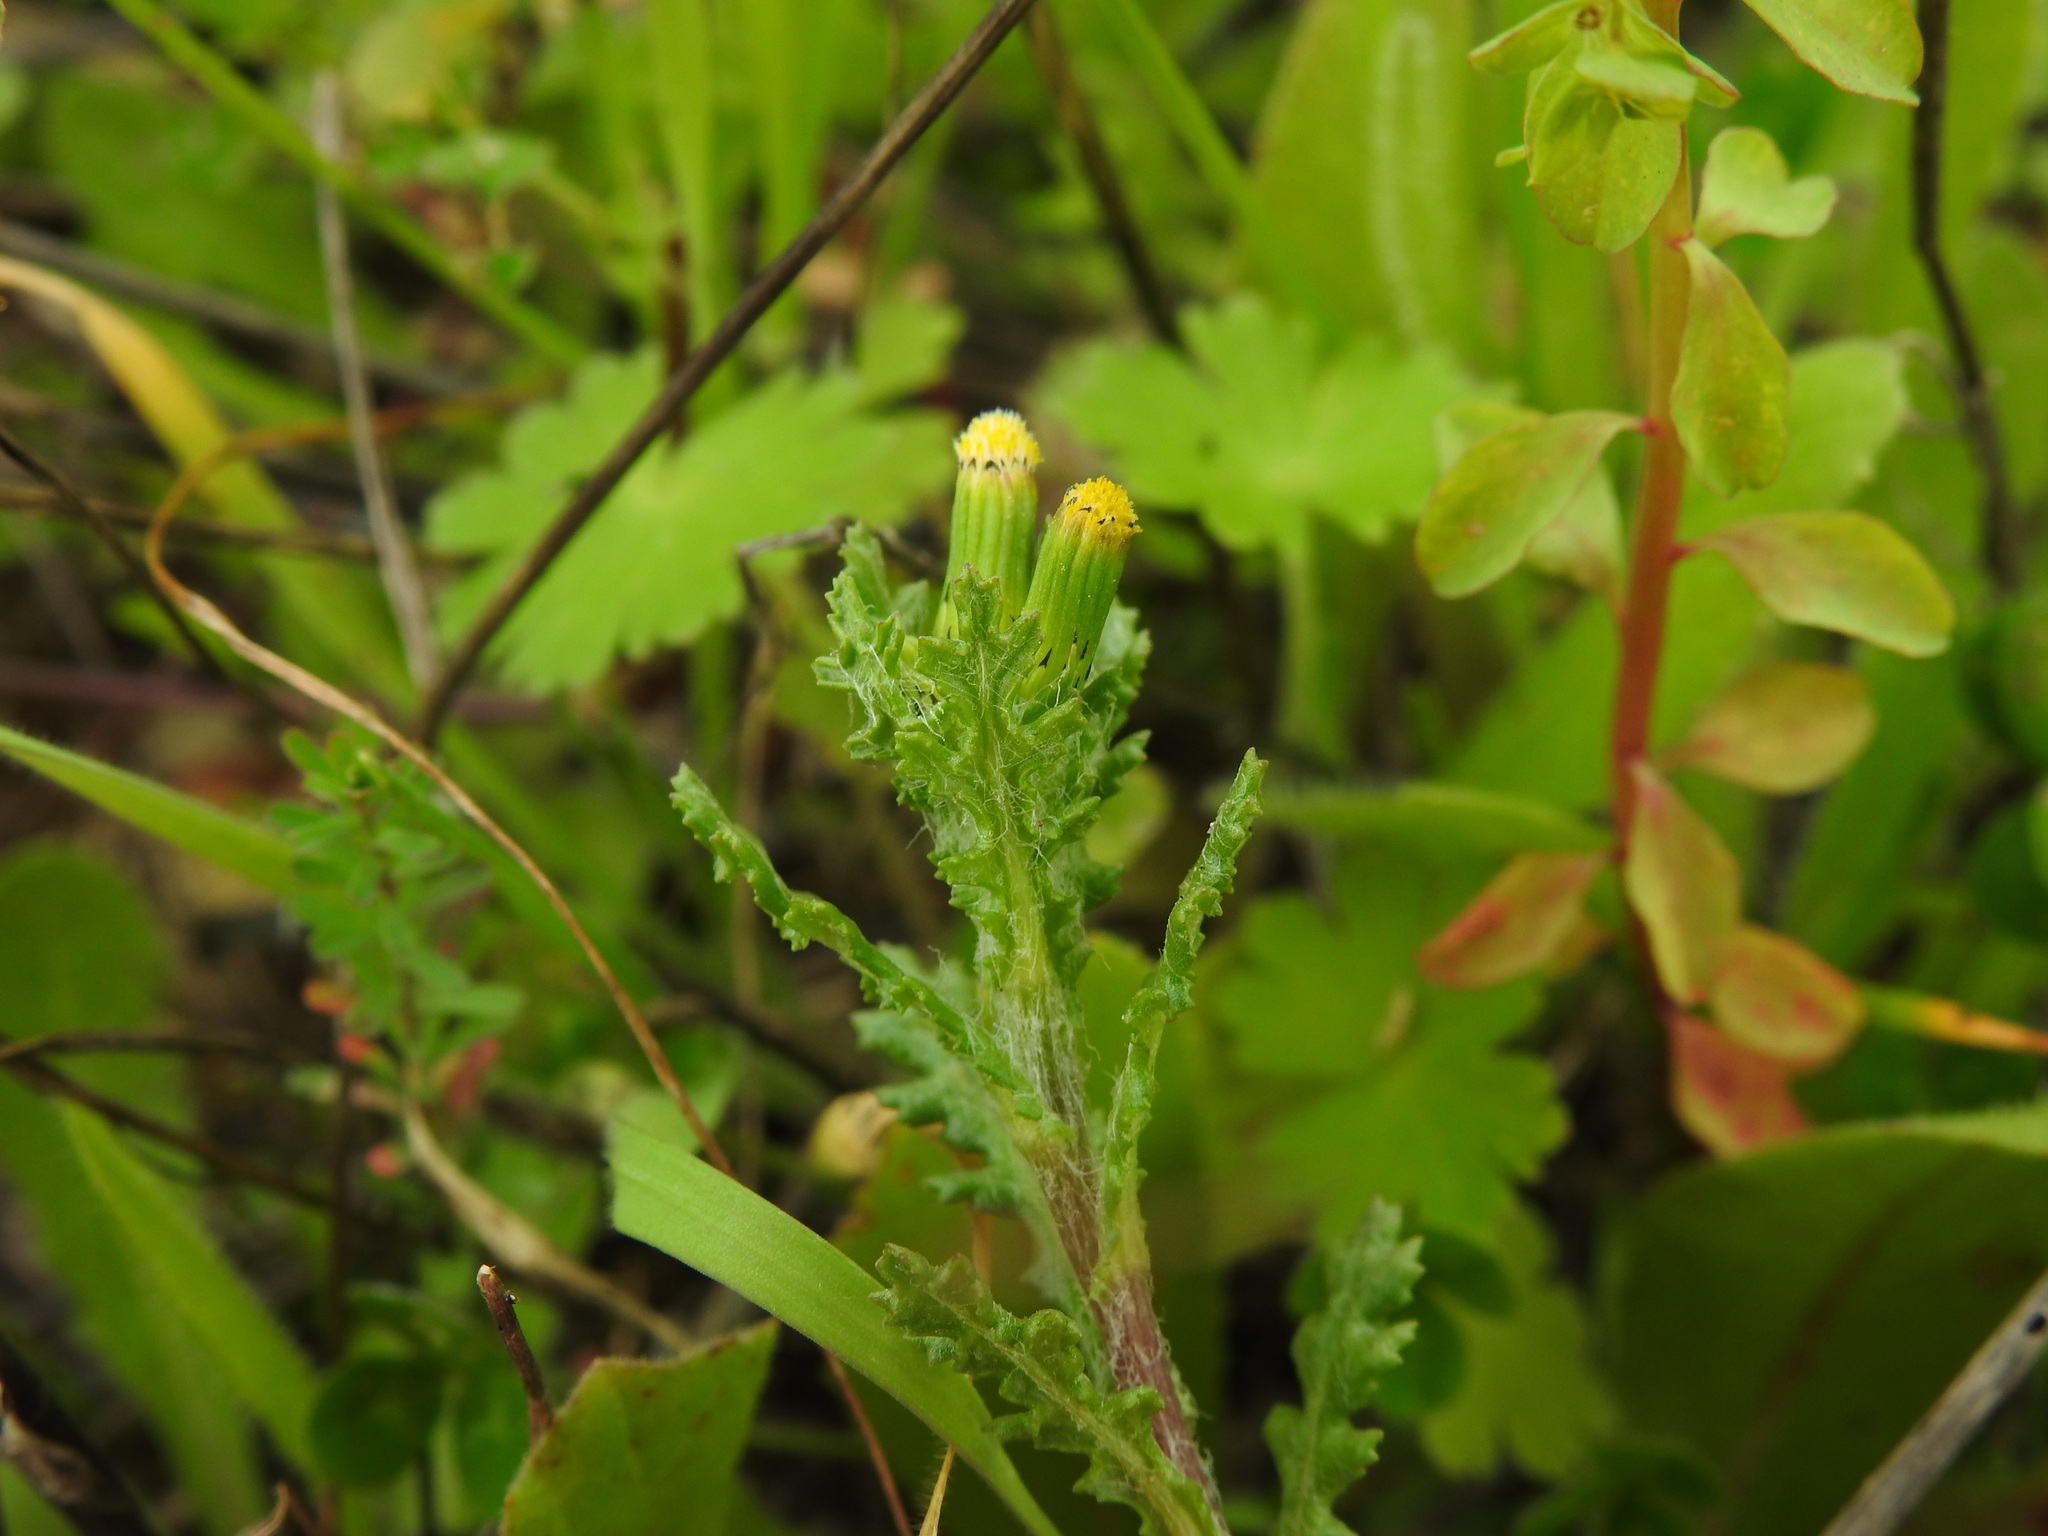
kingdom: Plantae
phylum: Tracheophyta
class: Magnoliopsida
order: Asterales
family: Asteraceae
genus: Senecio
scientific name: Senecio vulgaris
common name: Old-man-in-the-spring
